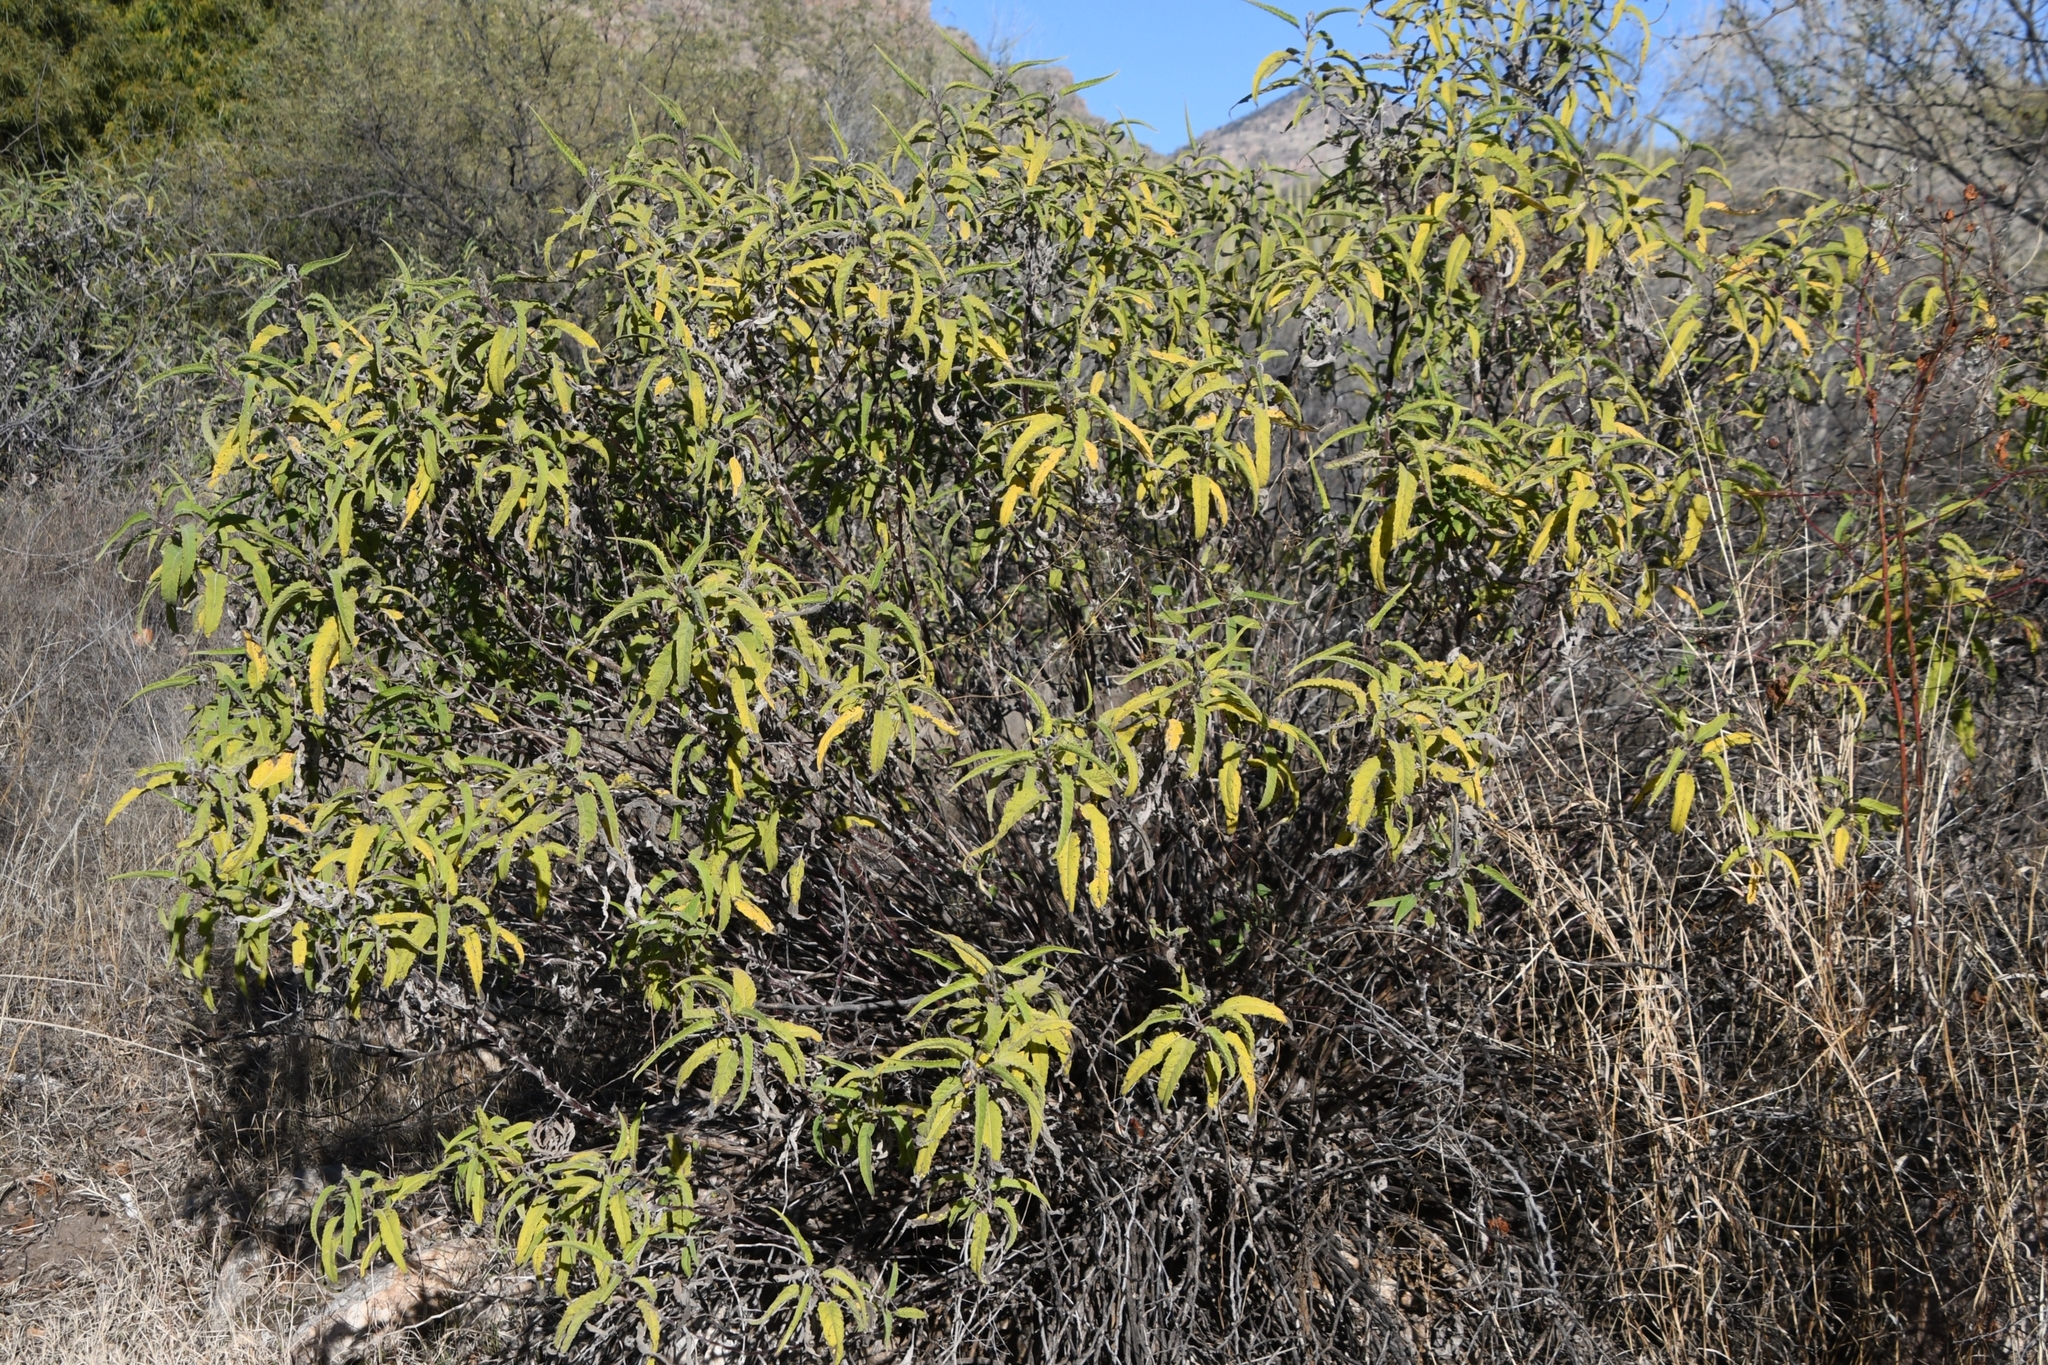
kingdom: Plantae
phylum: Tracheophyta
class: Magnoliopsida
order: Asterales
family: Asteraceae
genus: Ambrosia
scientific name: Ambrosia ambrosioides
